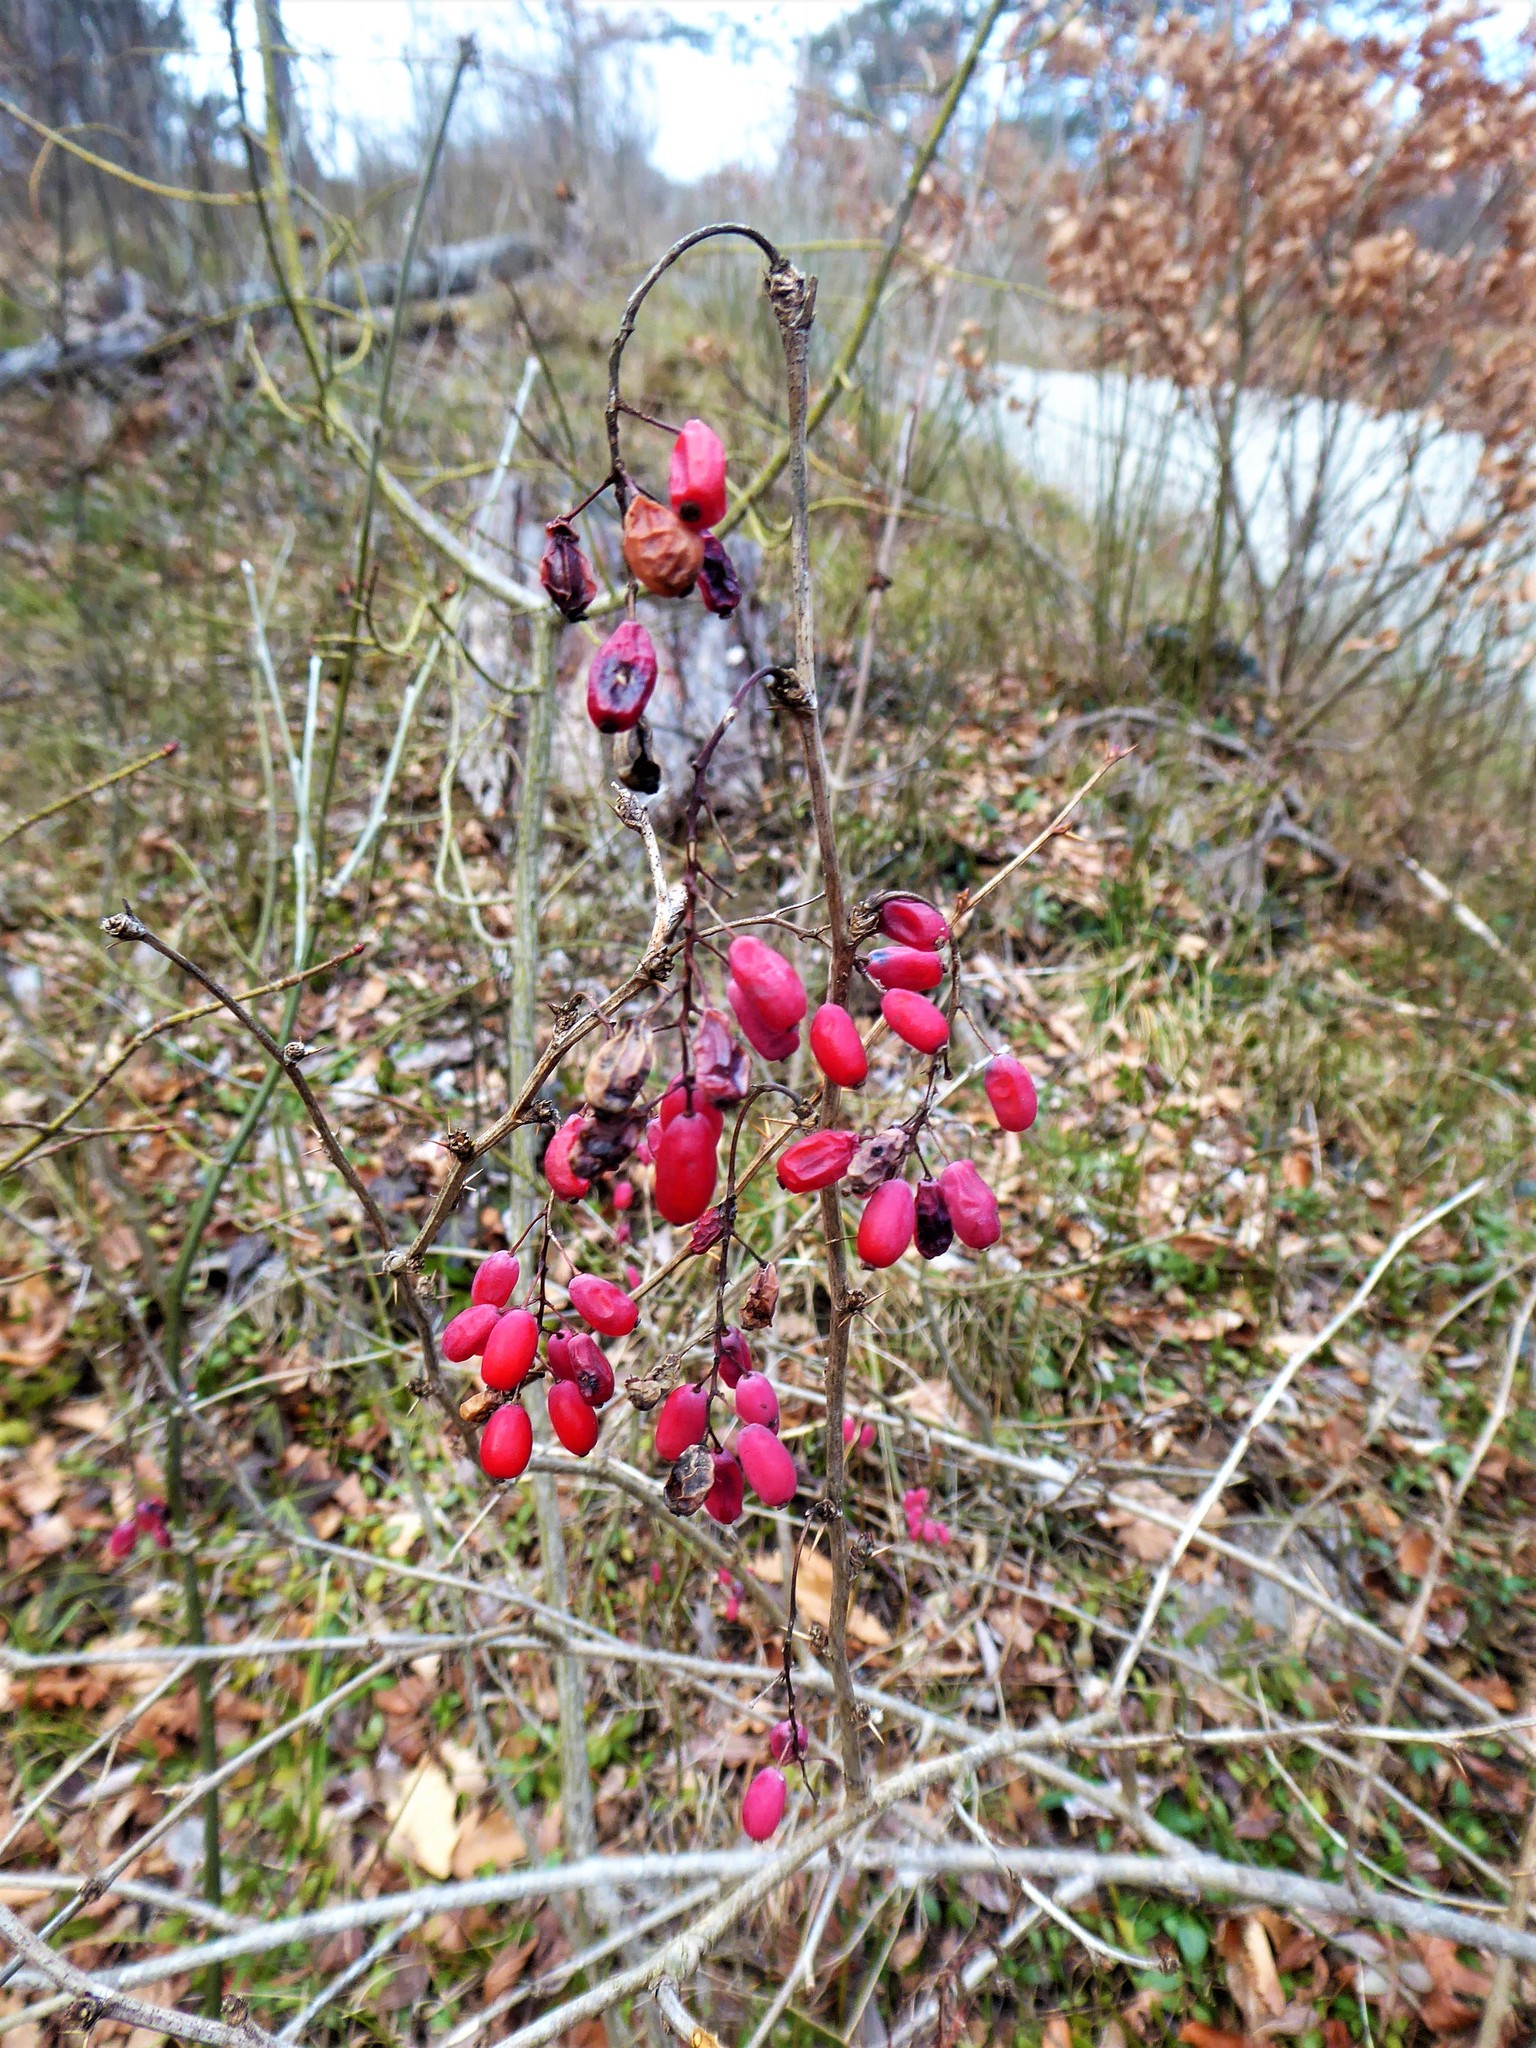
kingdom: Plantae
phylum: Tracheophyta
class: Magnoliopsida
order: Ranunculales
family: Berberidaceae
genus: Berberis
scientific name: Berberis vulgaris
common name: Barberry
